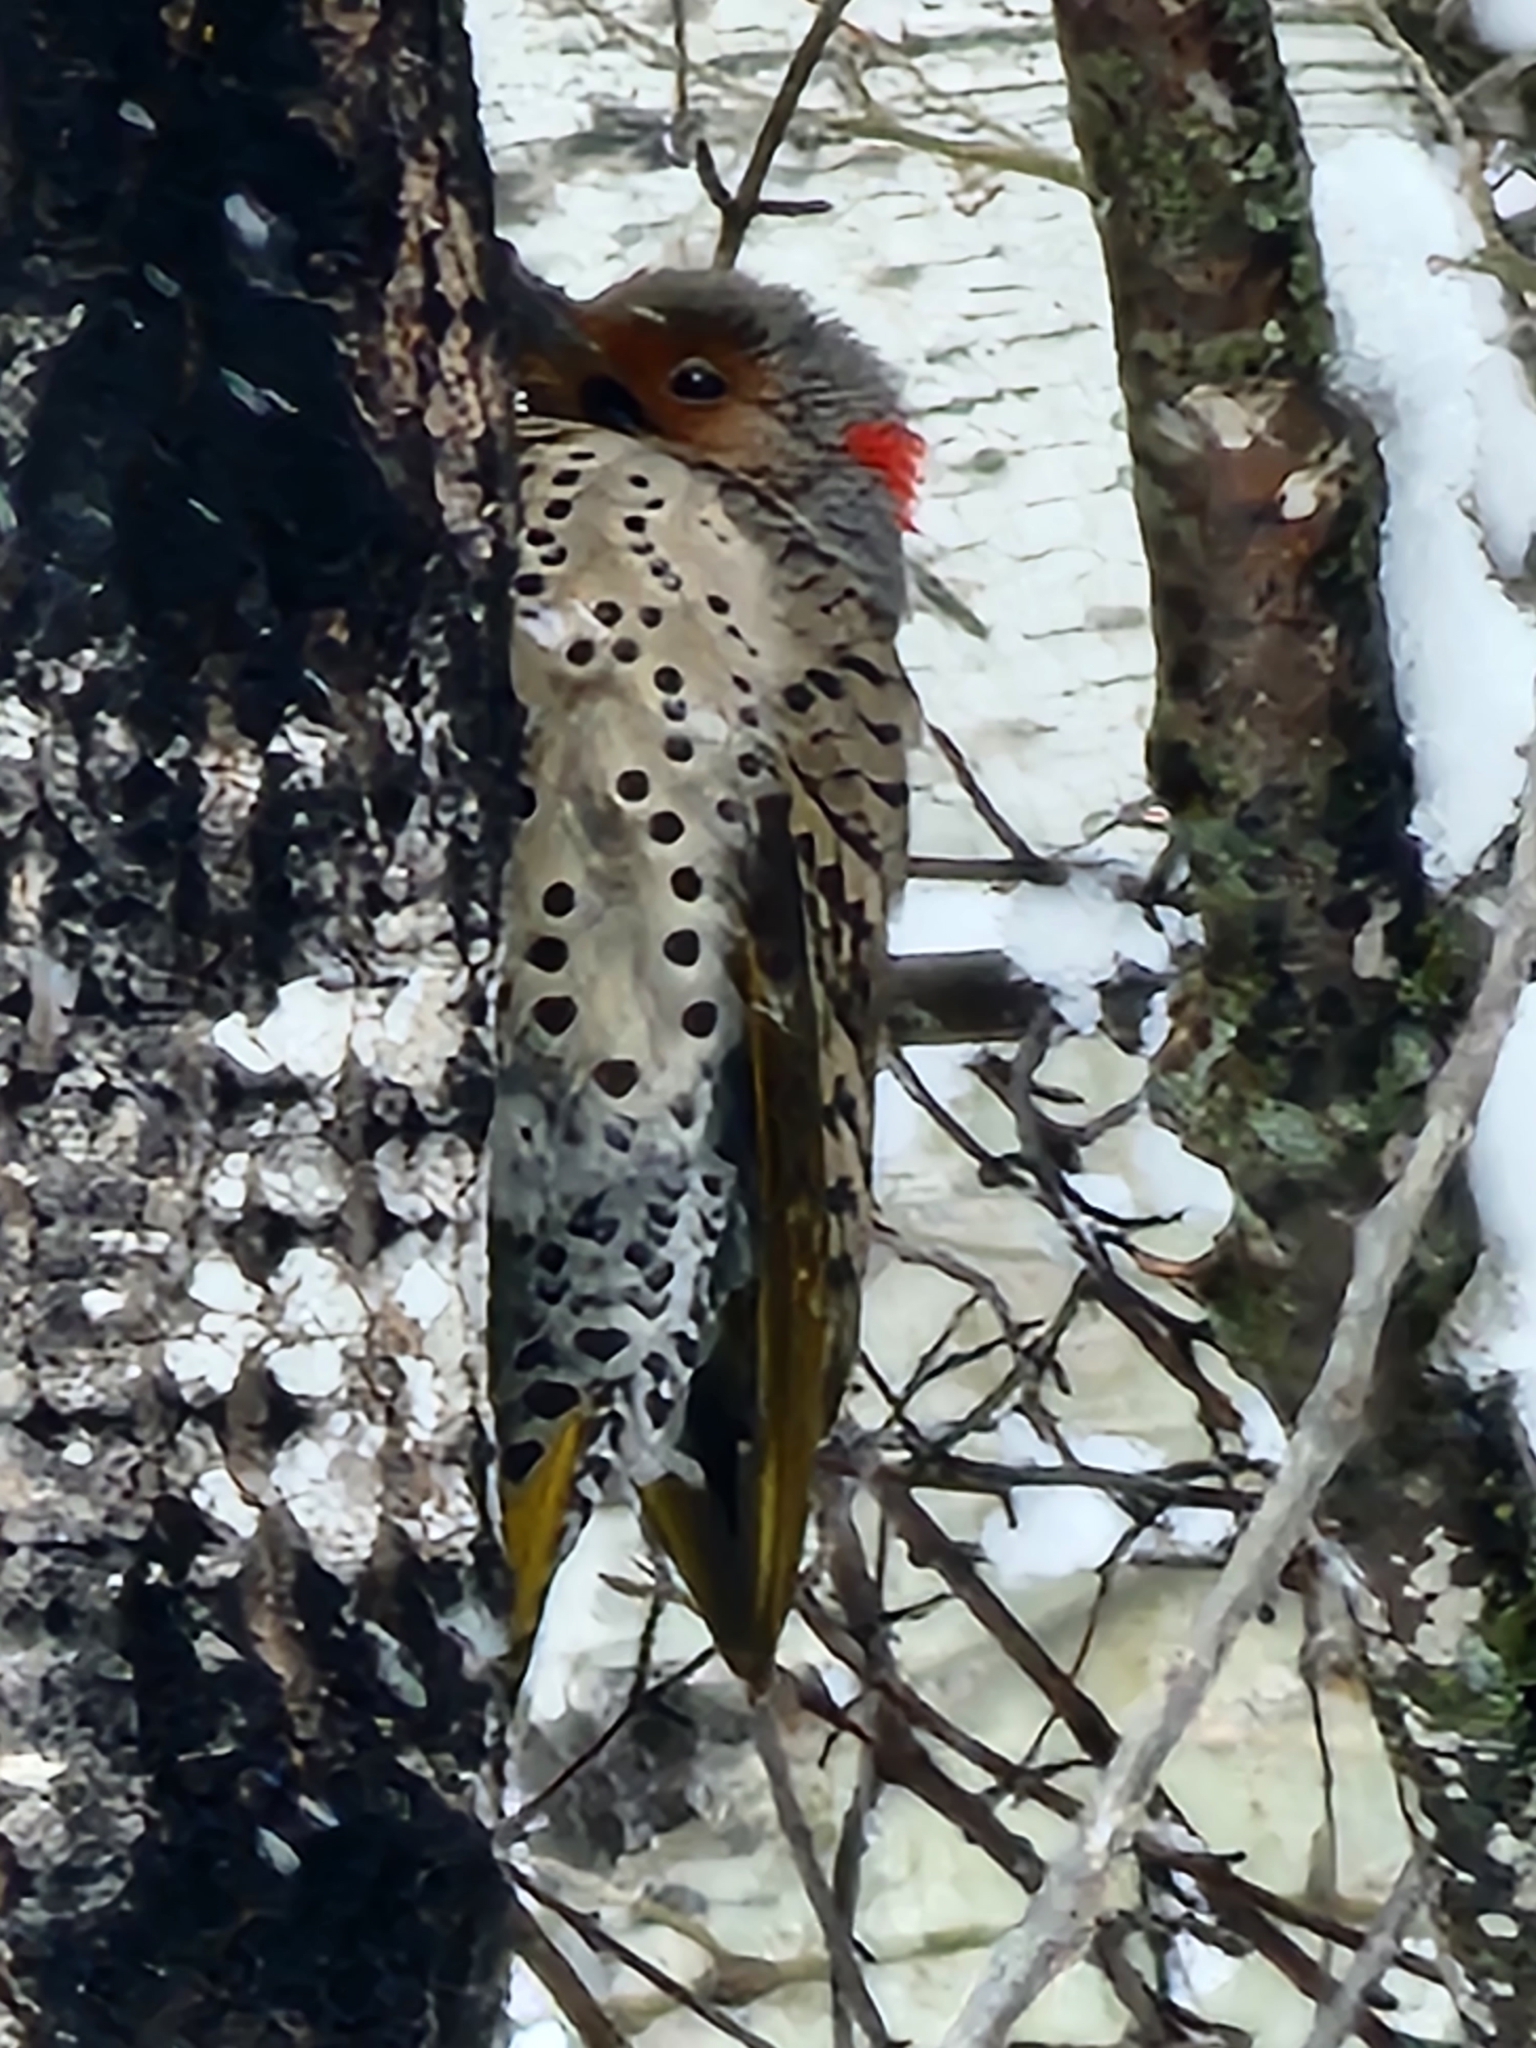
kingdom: Animalia
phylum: Chordata
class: Aves
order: Piciformes
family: Picidae
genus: Colaptes
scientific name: Colaptes auratus
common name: Northern flicker
